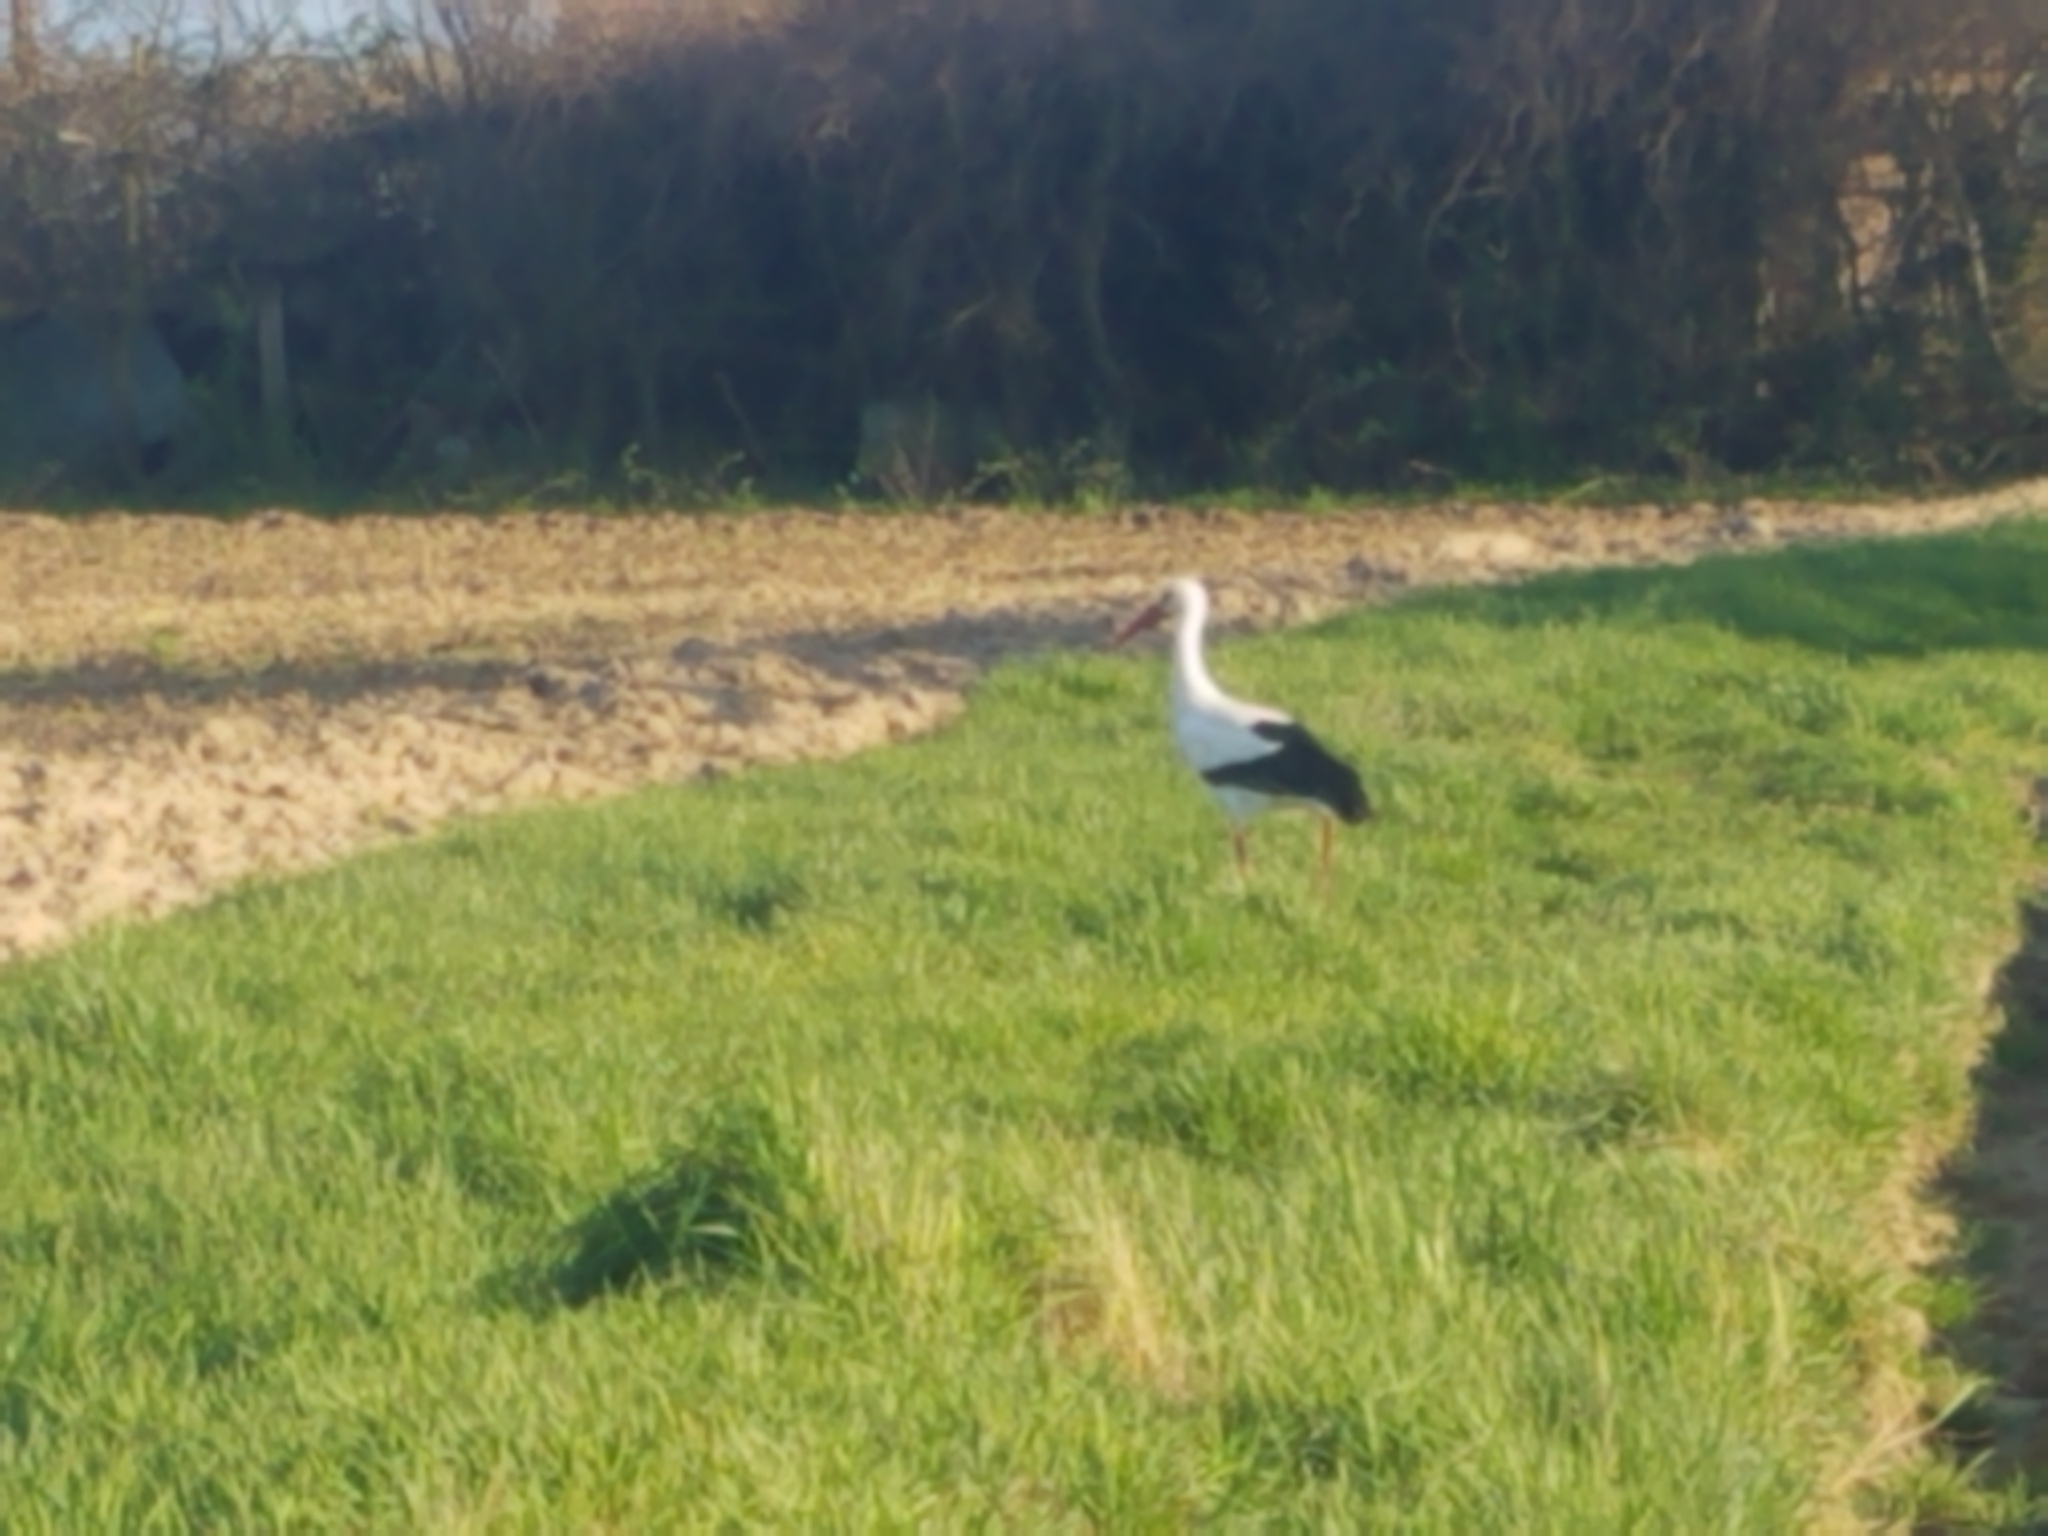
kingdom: Animalia
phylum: Chordata
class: Aves
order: Ciconiiformes
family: Ciconiidae
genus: Ciconia
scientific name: Ciconia ciconia
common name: White stork
